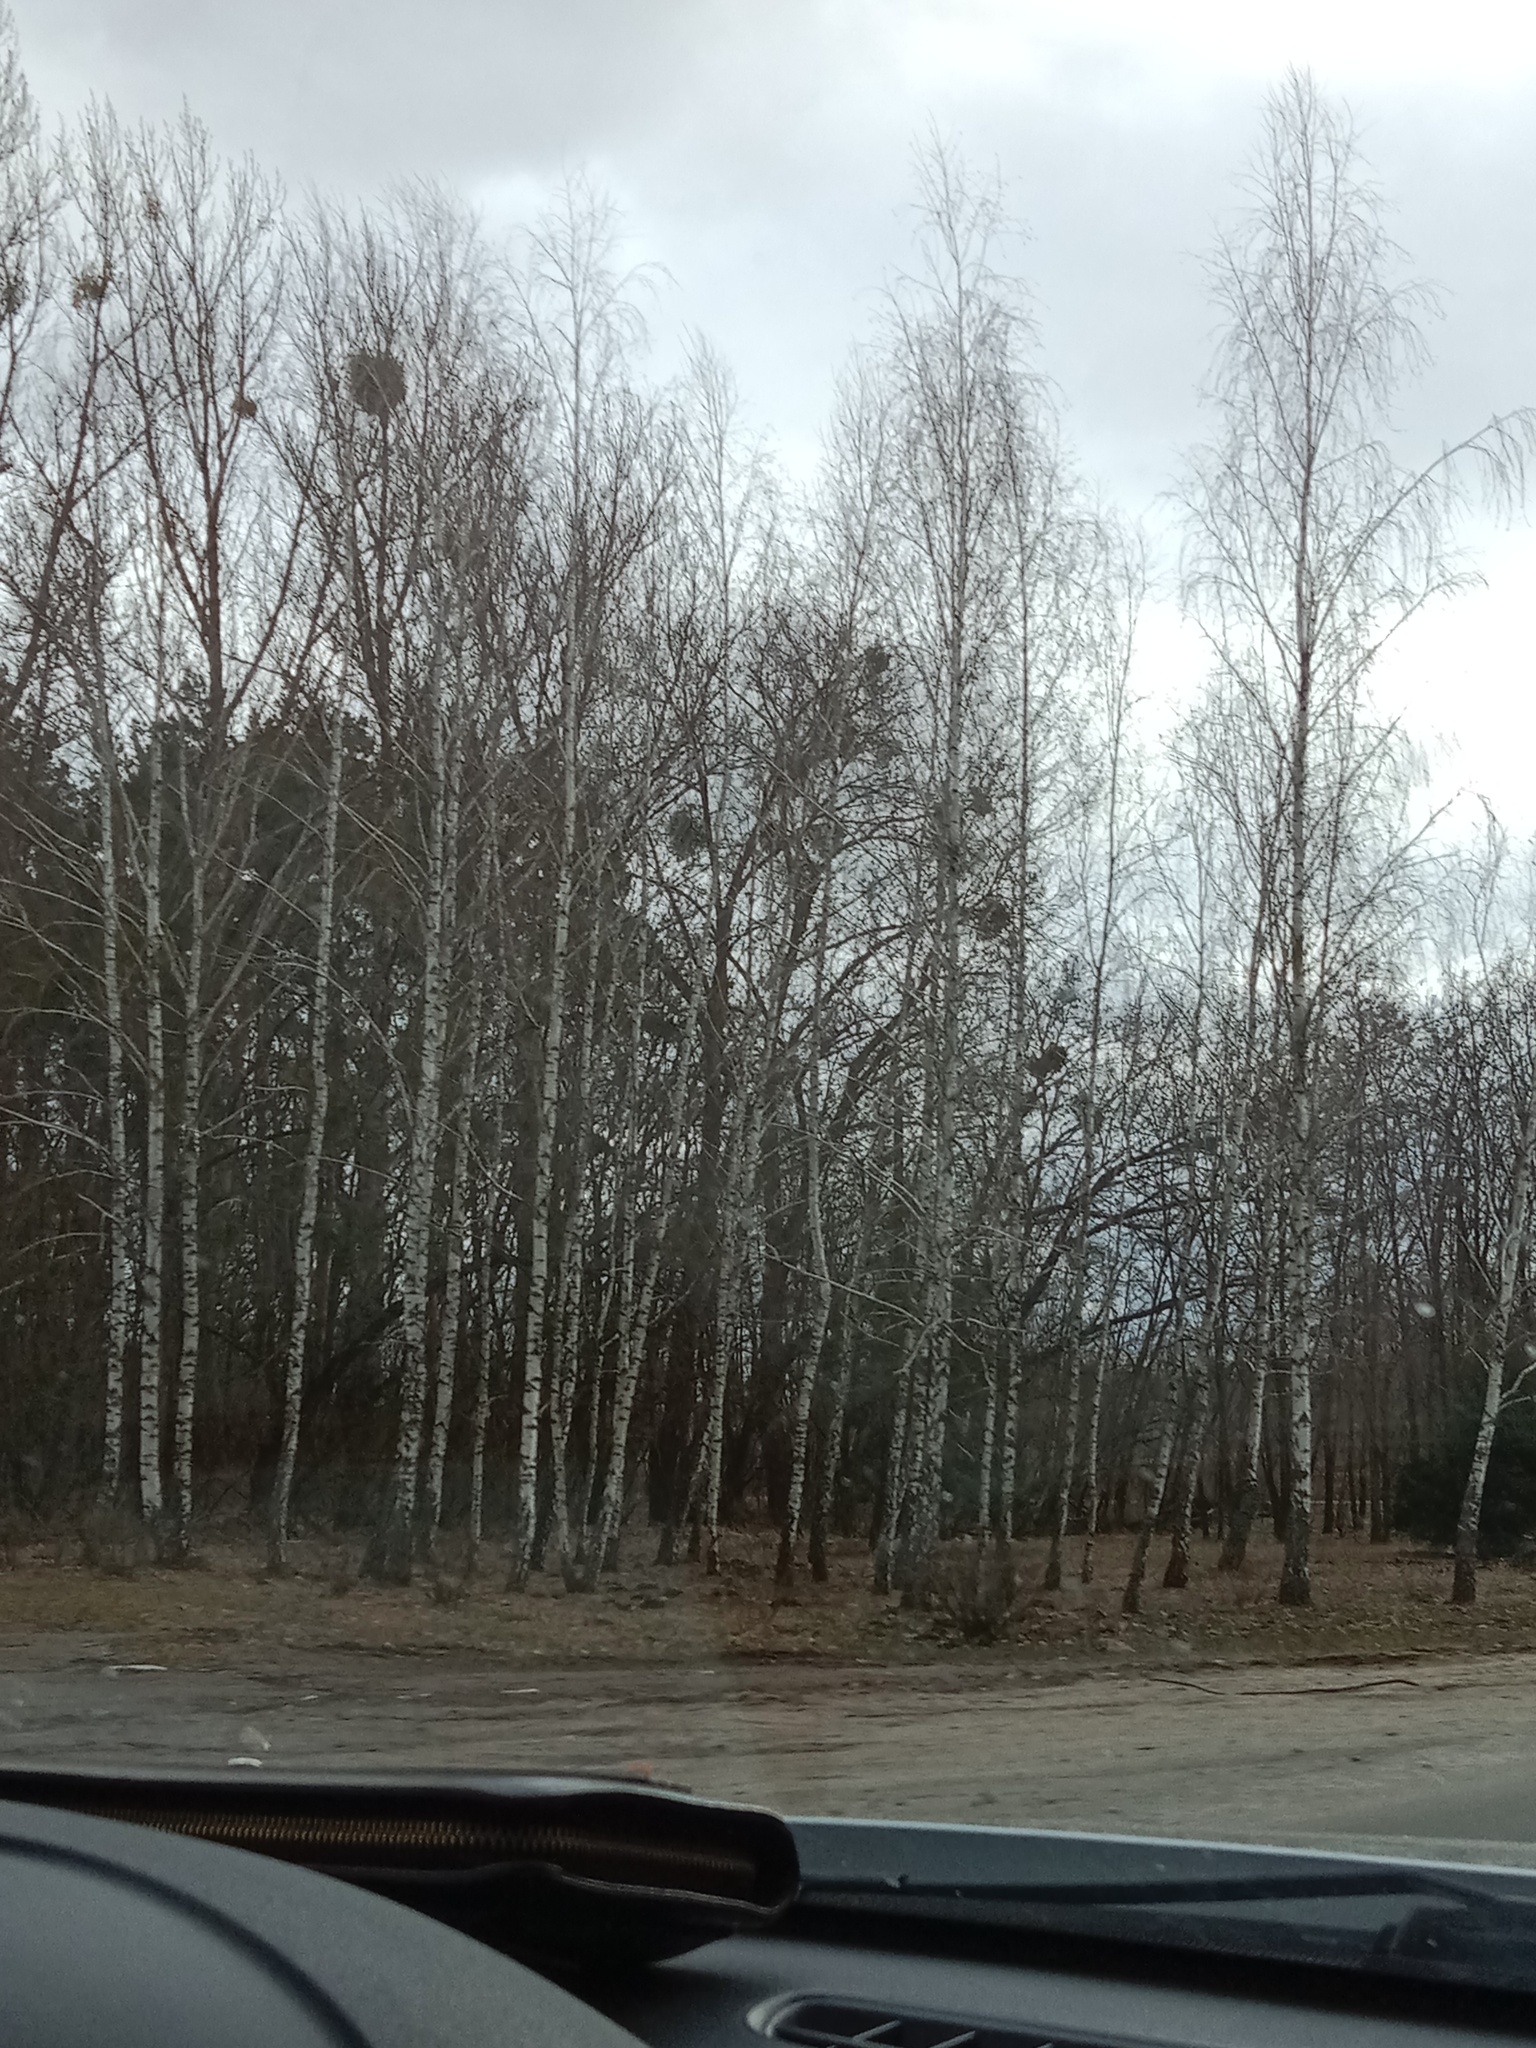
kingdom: Plantae
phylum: Tracheophyta
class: Magnoliopsida
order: Santalales
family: Viscaceae
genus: Viscum
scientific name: Viscum album
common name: Mistletoe
